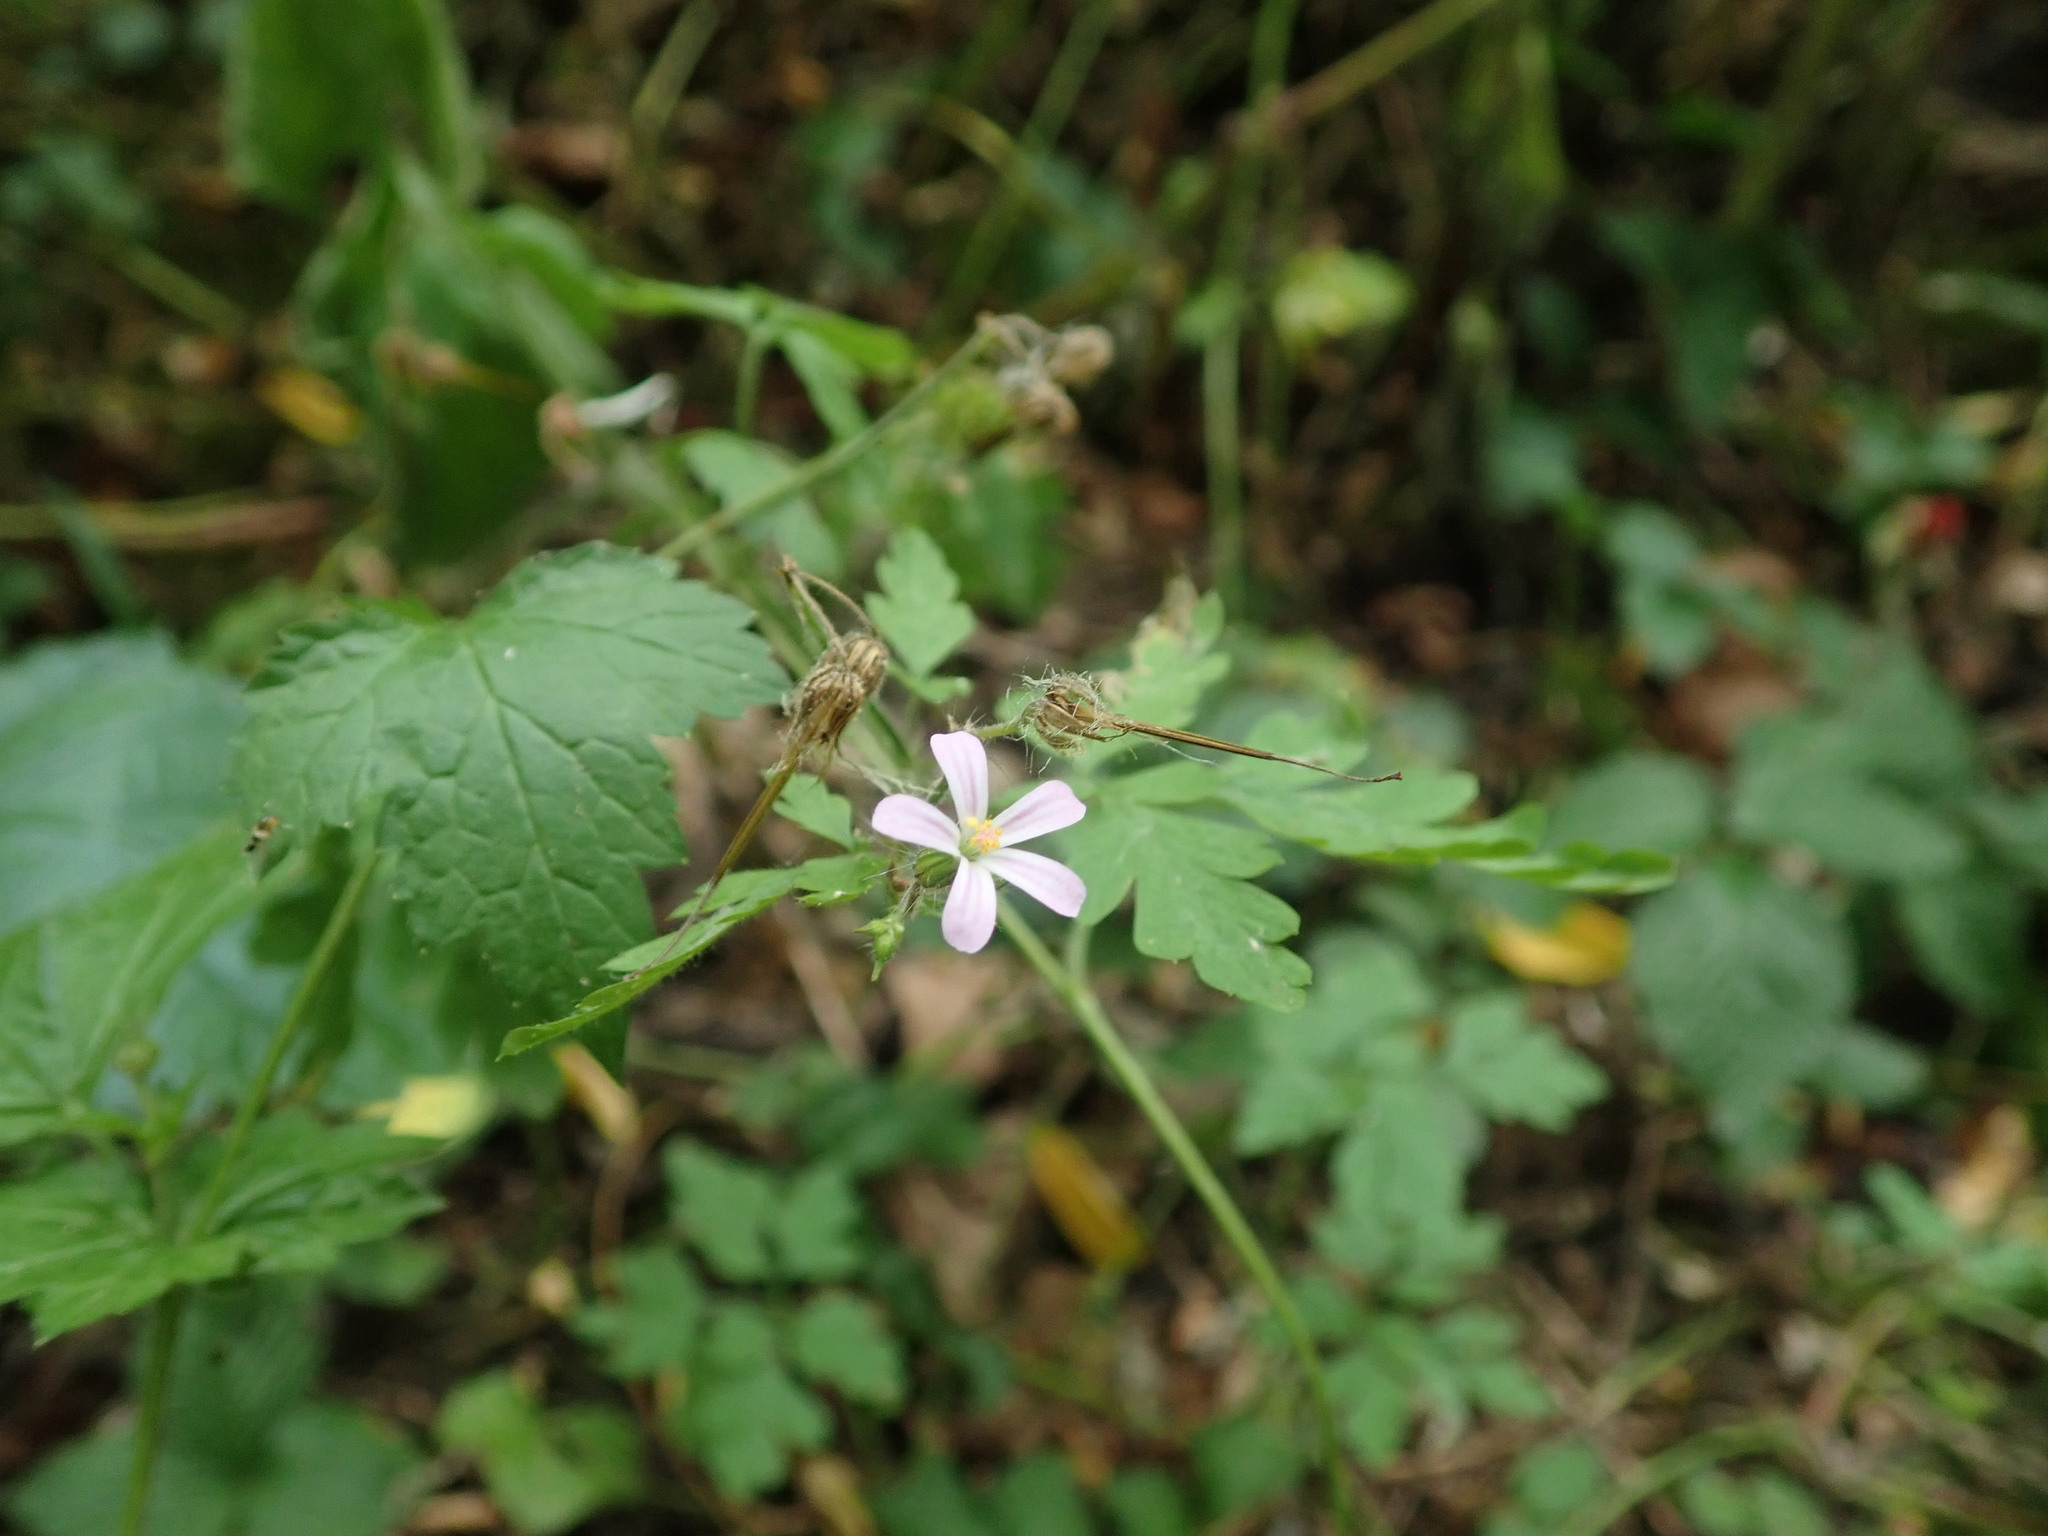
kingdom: Plantae
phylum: Tracheophyta
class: Magnoliopsida
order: Geraniales
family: Geraniaceae
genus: Geranium
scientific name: Geranium robertianum
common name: Herb-robert
